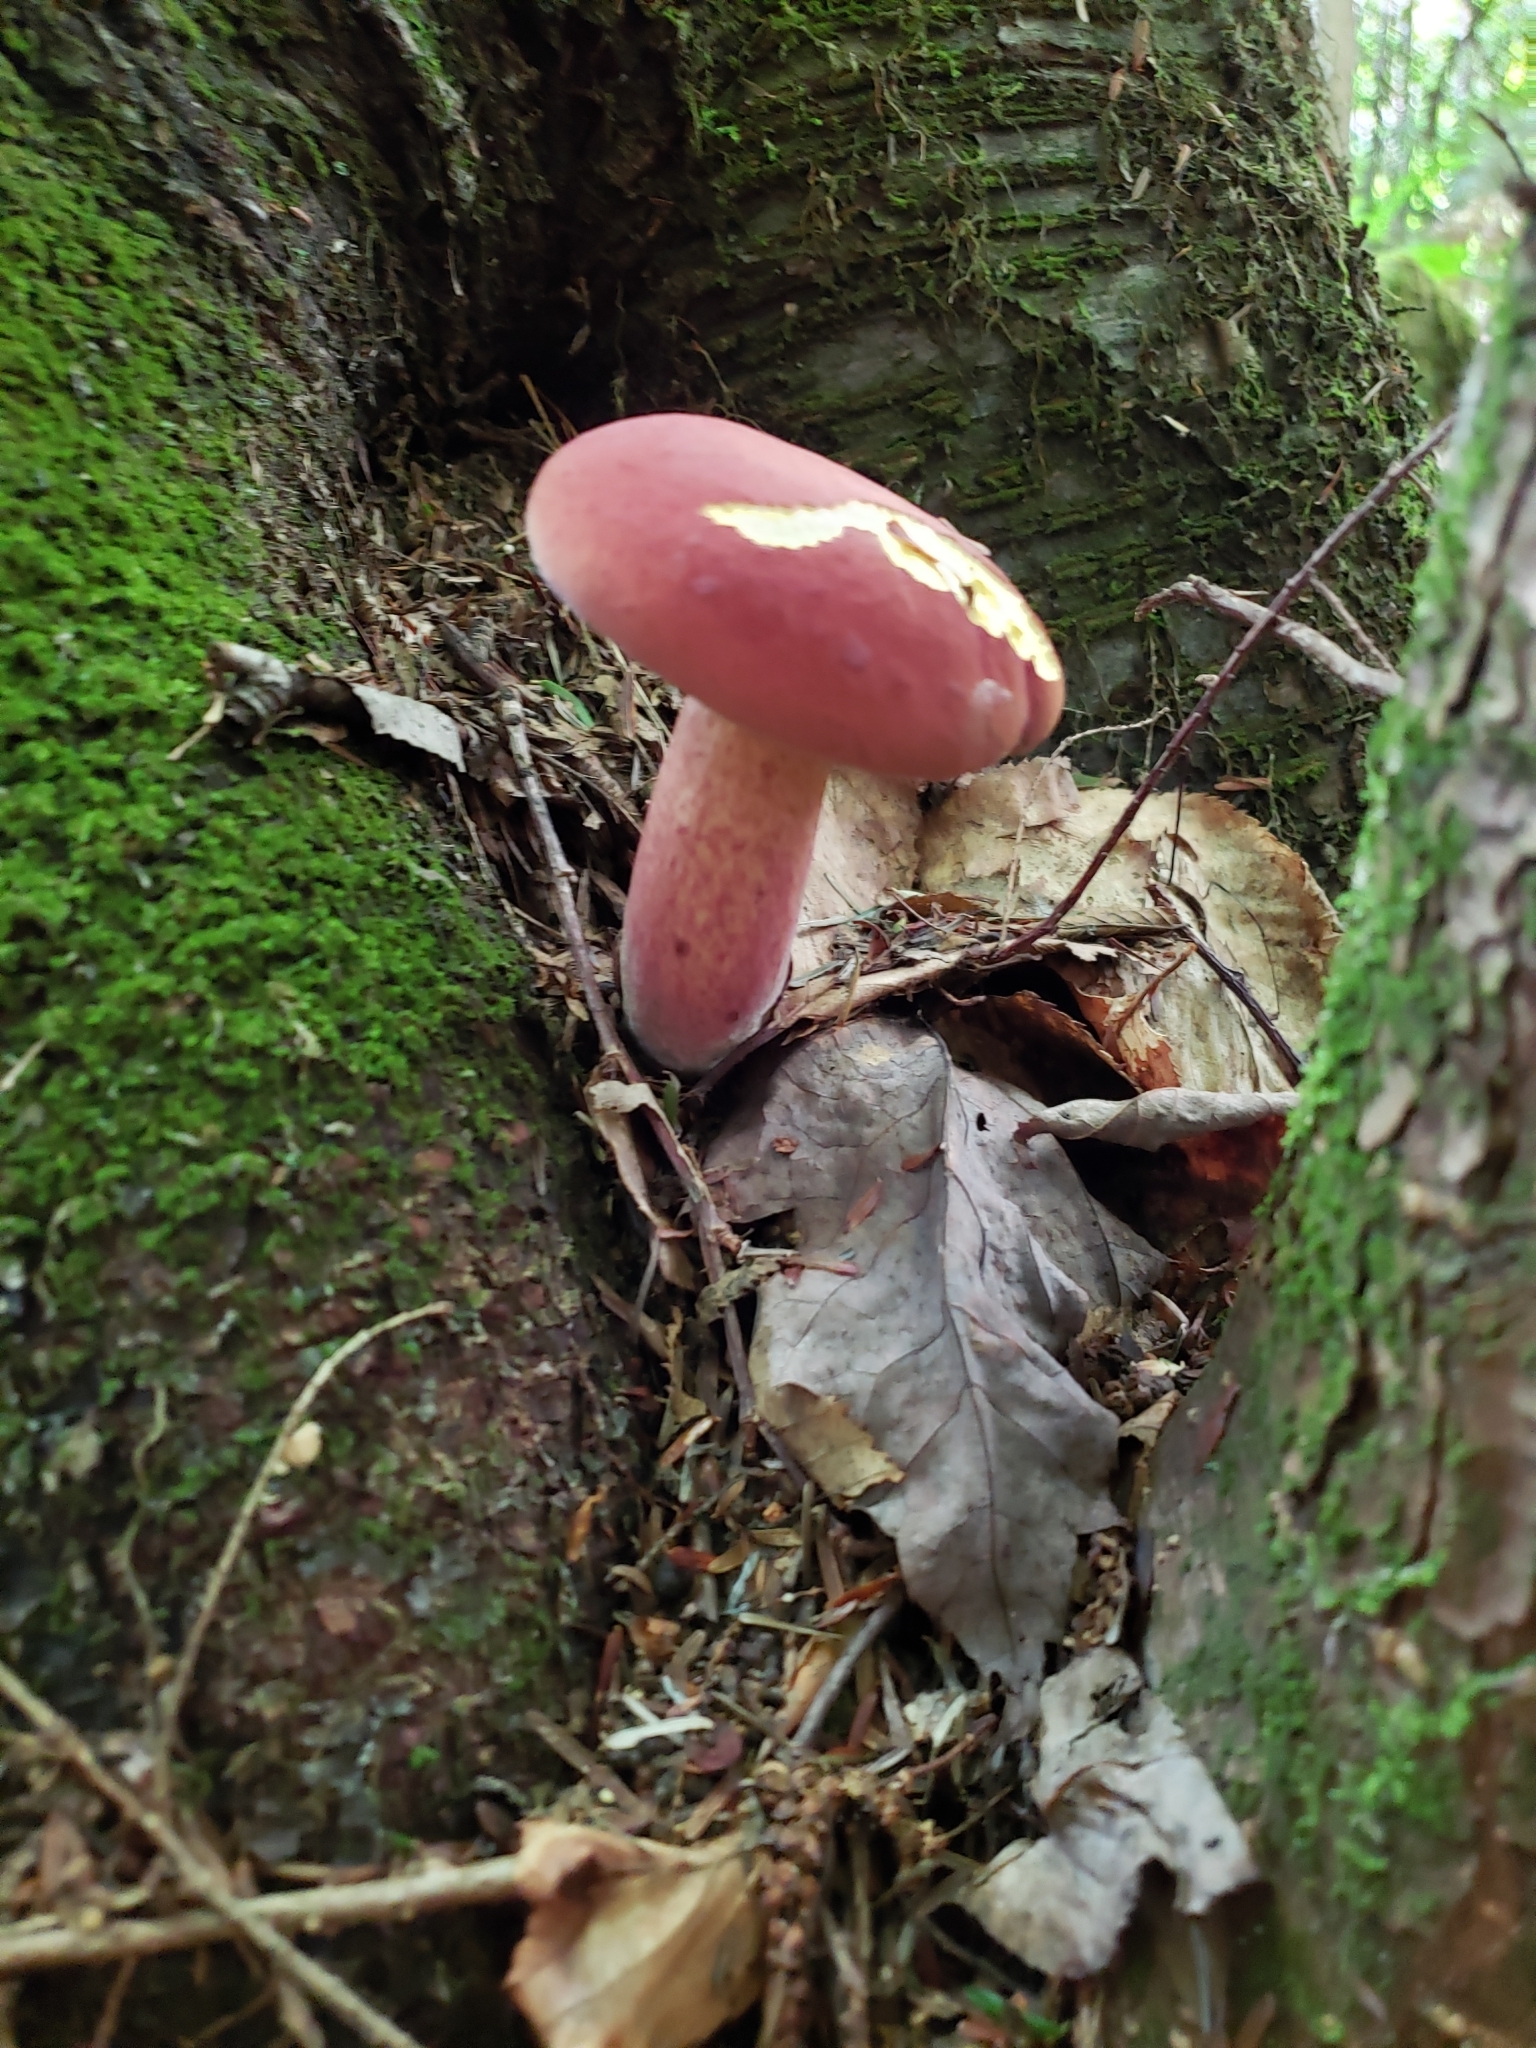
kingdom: Fungi
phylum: Basidiomycota
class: Agaricomycetes
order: Boletales
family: Boletaceae
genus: Baorangia
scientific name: Baorangia bicolor
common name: Two-colored bolete
